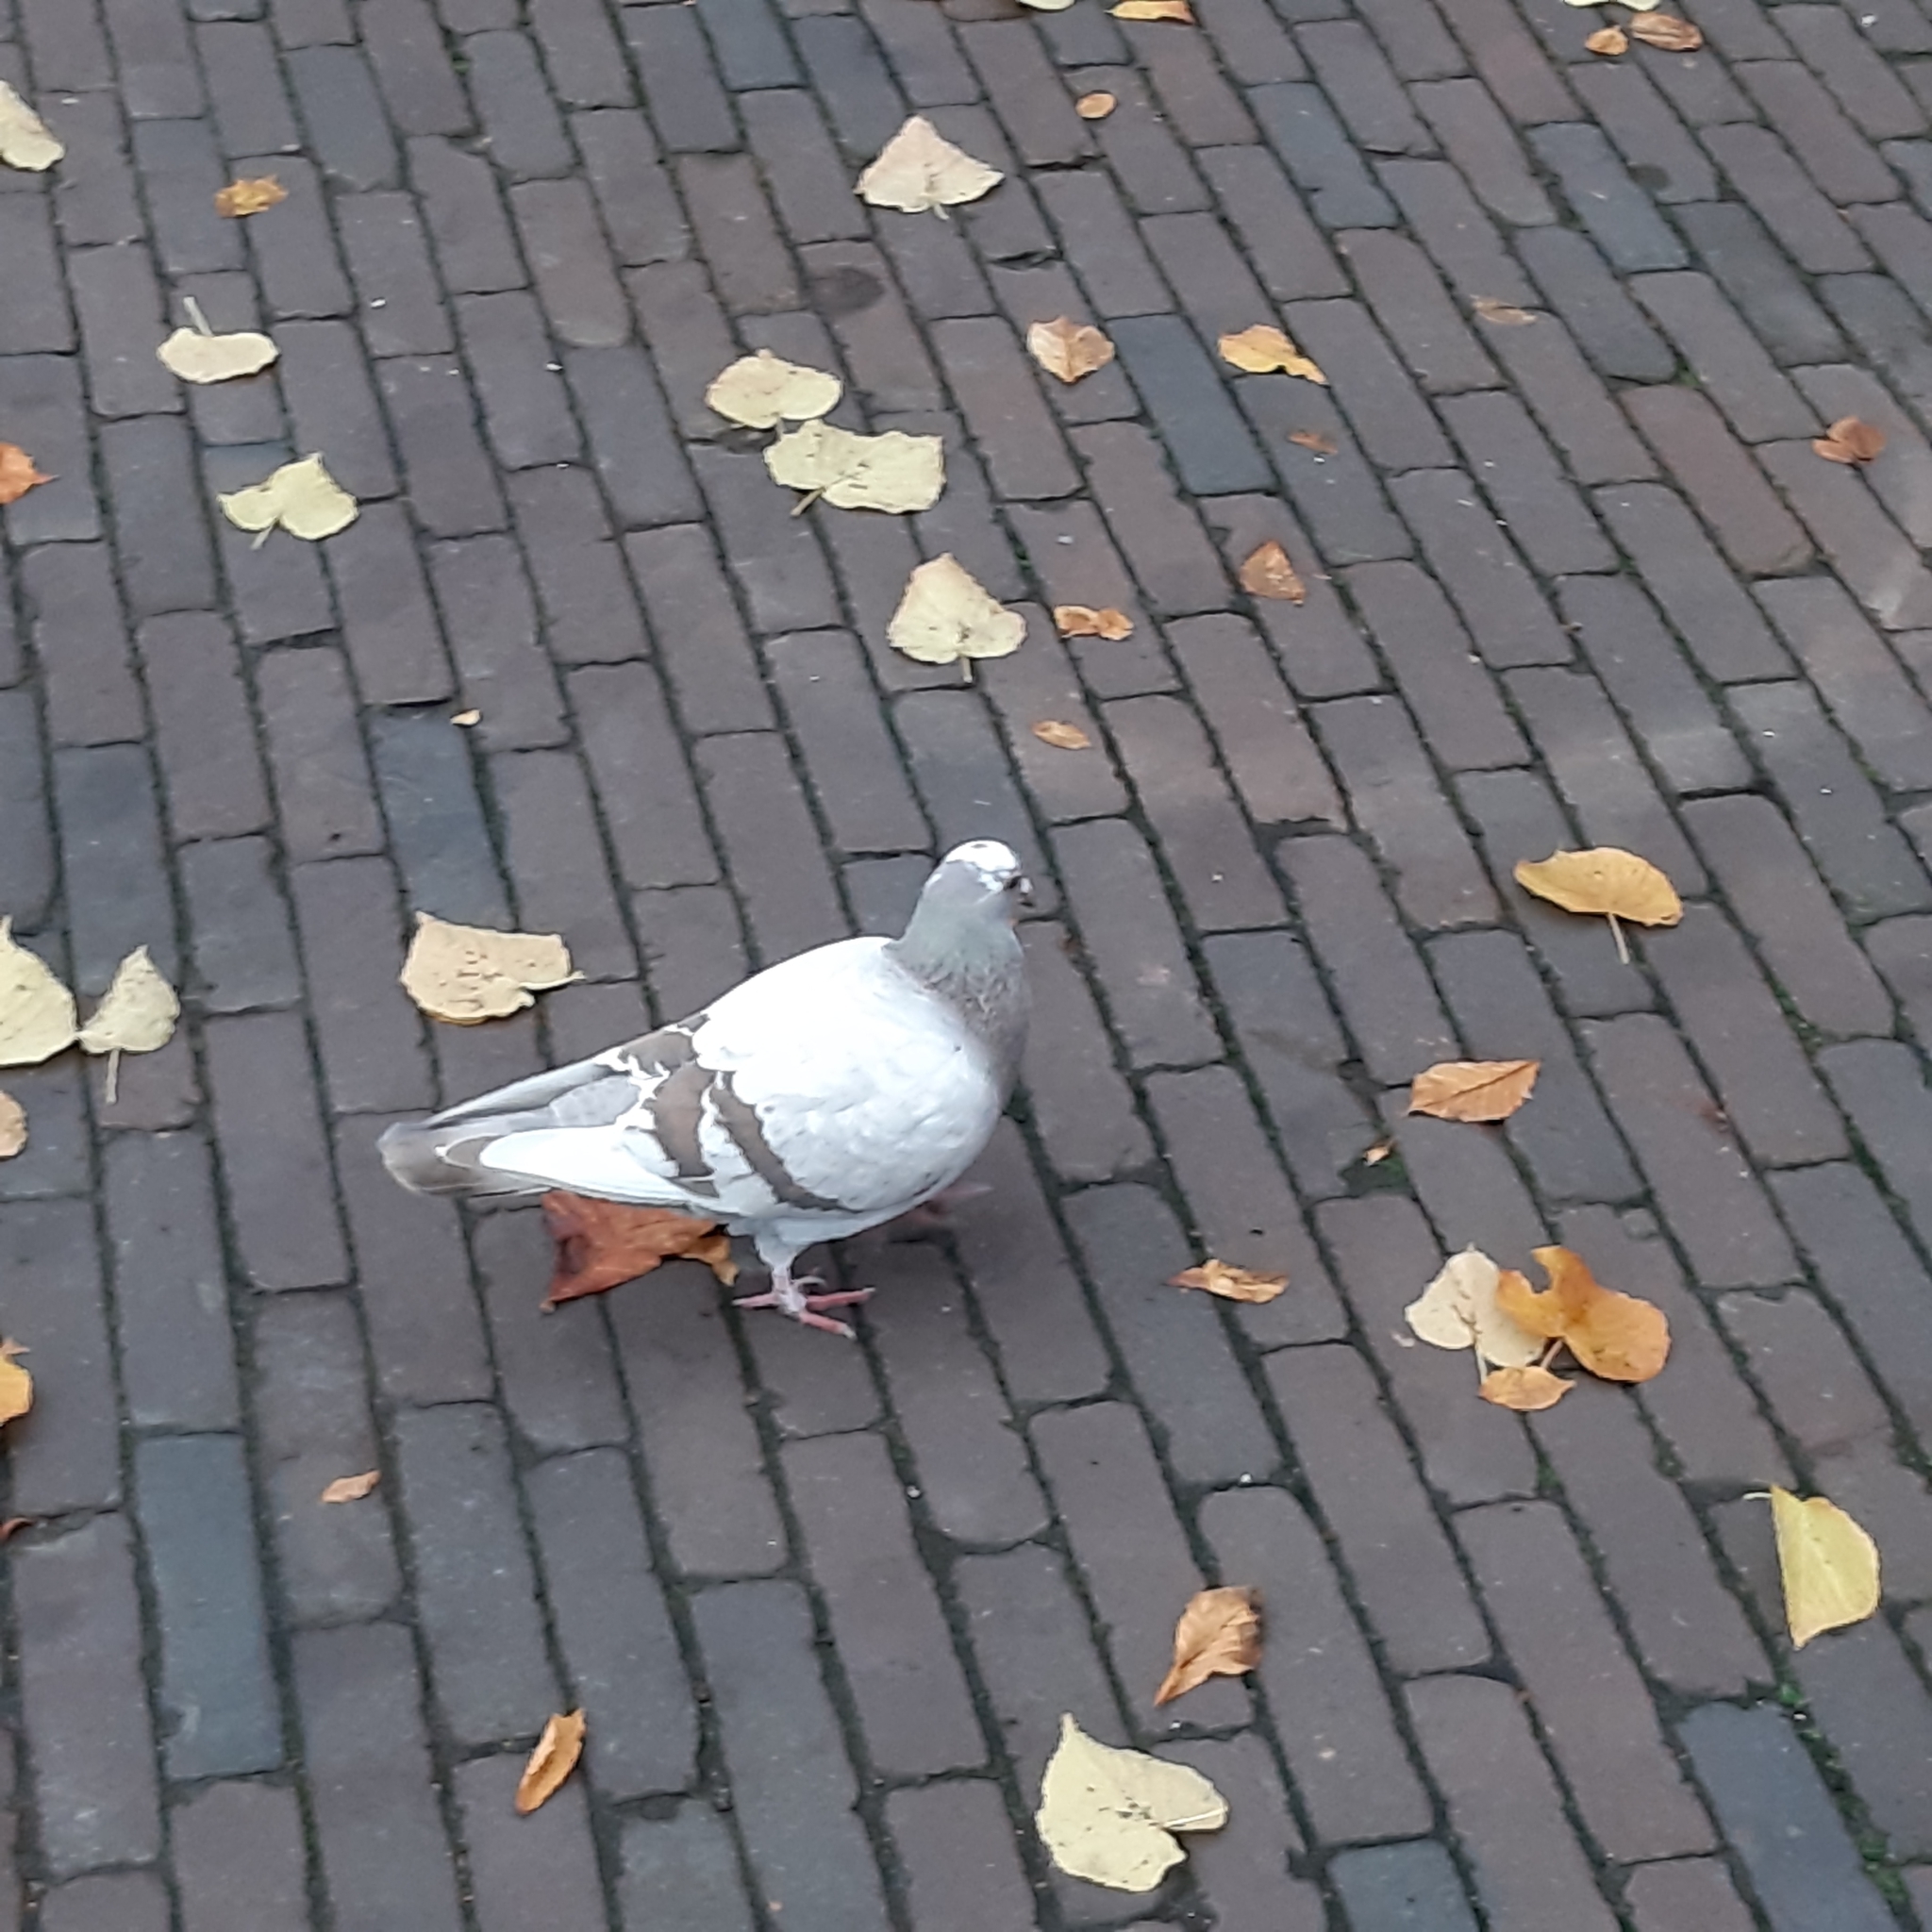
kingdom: Animalia
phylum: Chordata
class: Aves
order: Columbiformes
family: Columbidae
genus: Columba
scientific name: Columba livia
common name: Rock pigeon
